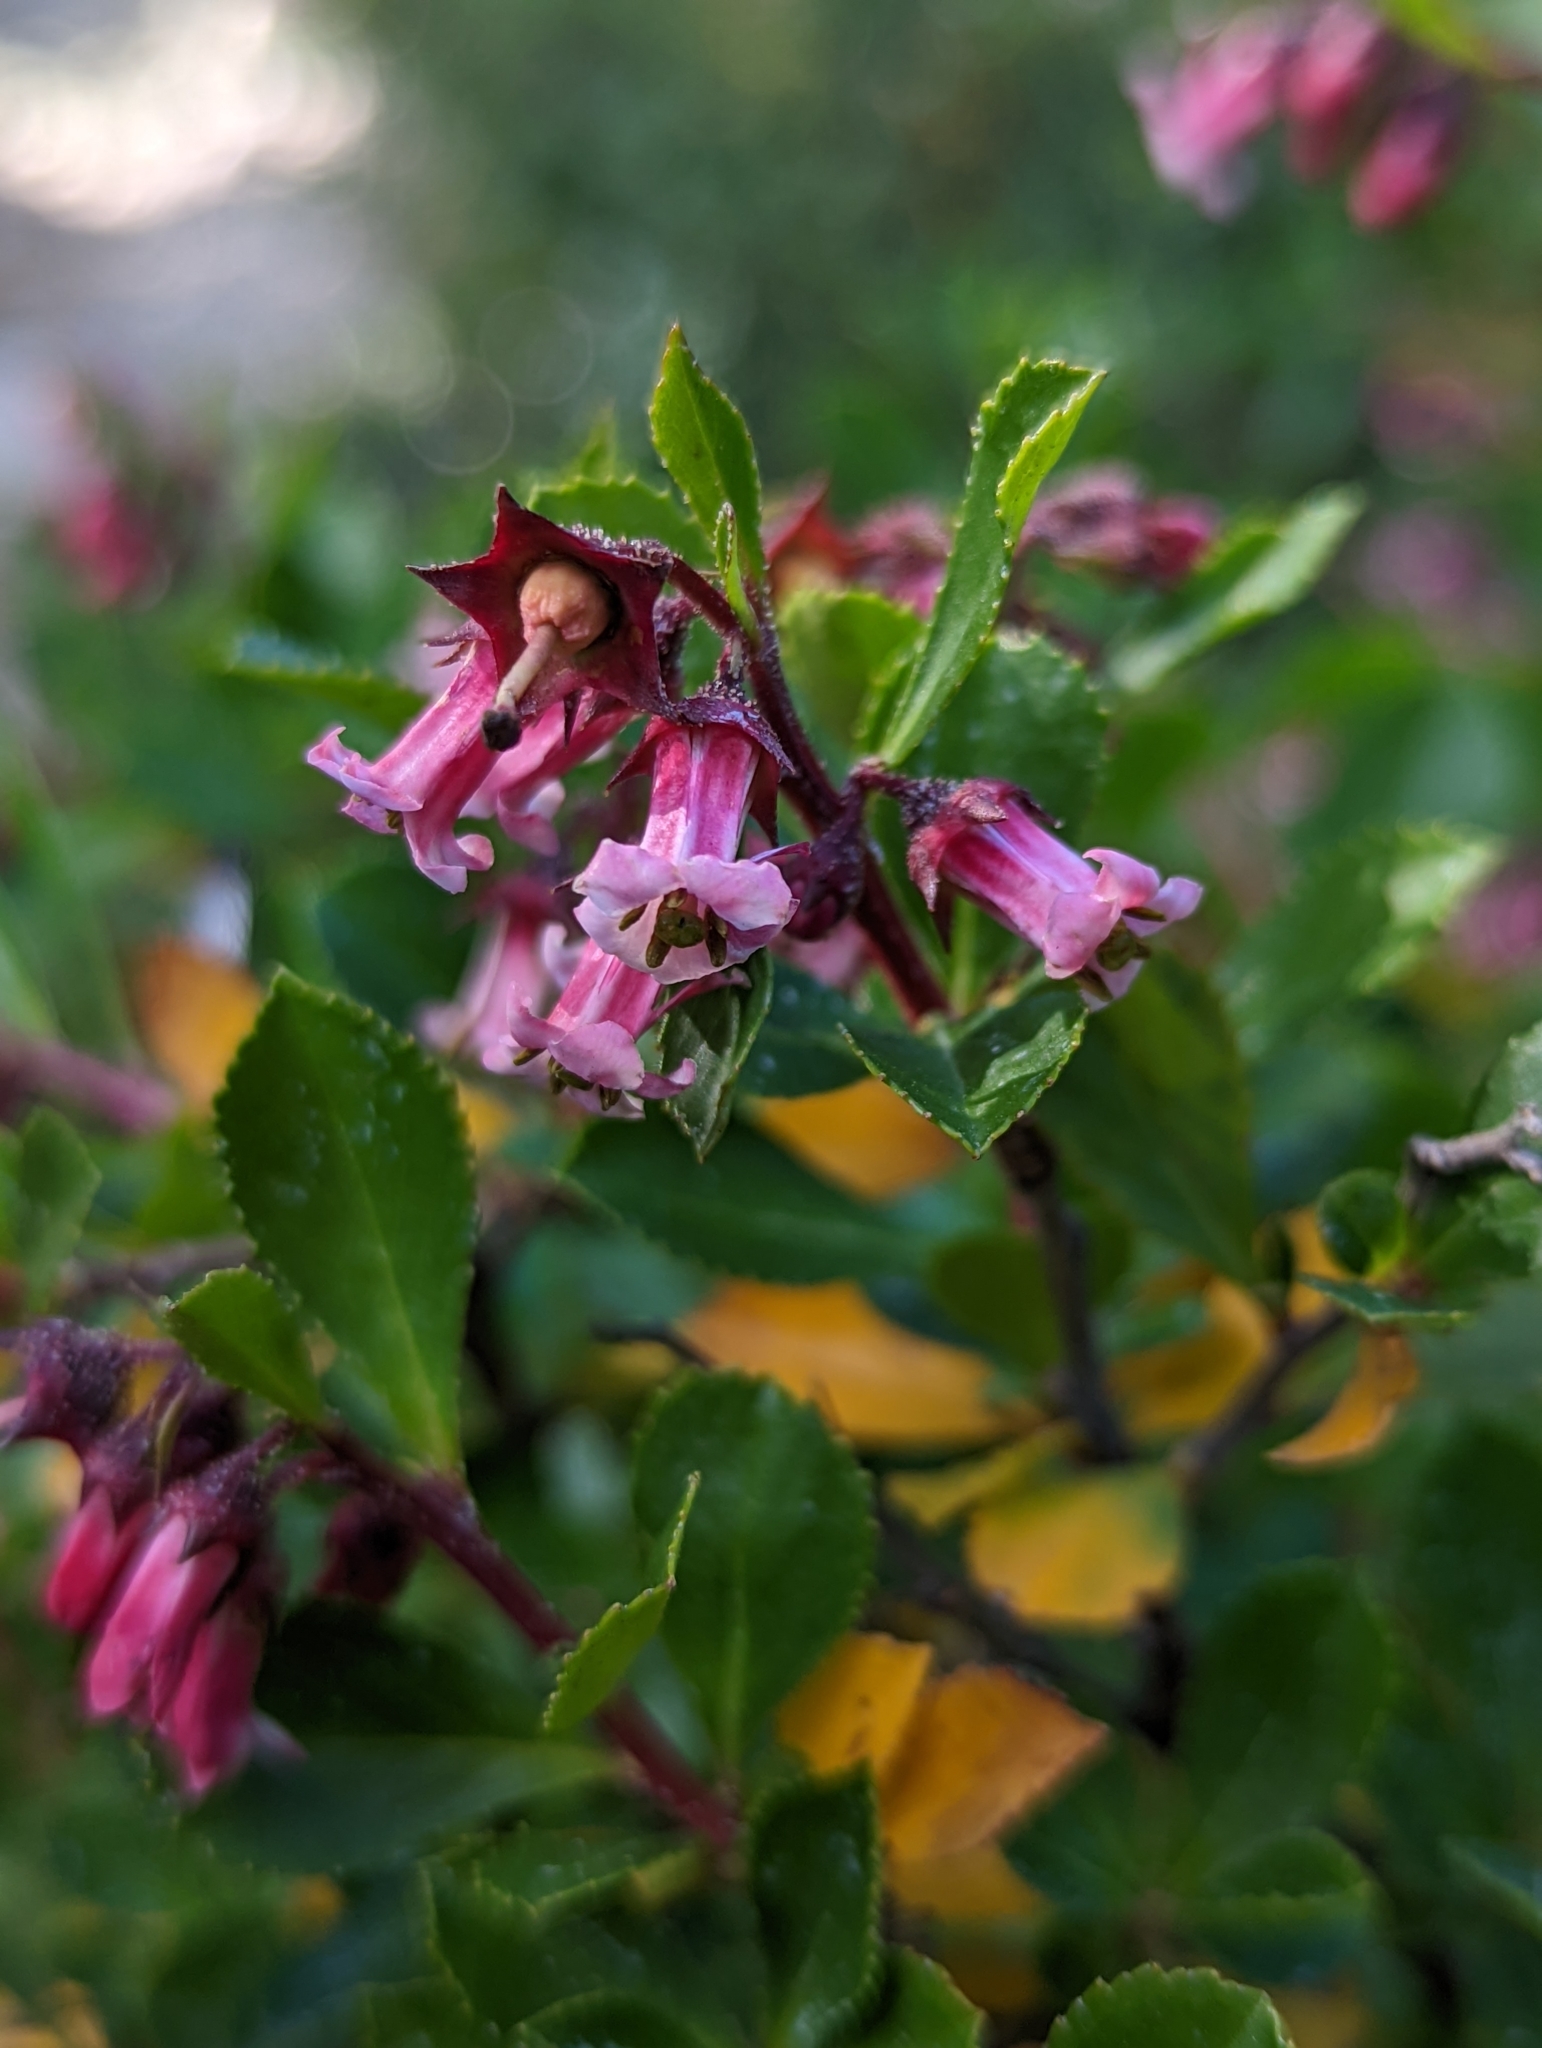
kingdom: Plantae
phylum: Tracheophyta
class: Magnoliopsida
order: Escalloniales
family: Escalloniaceae
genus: Escallonia
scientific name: Escallonia rubra
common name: Redclaws
